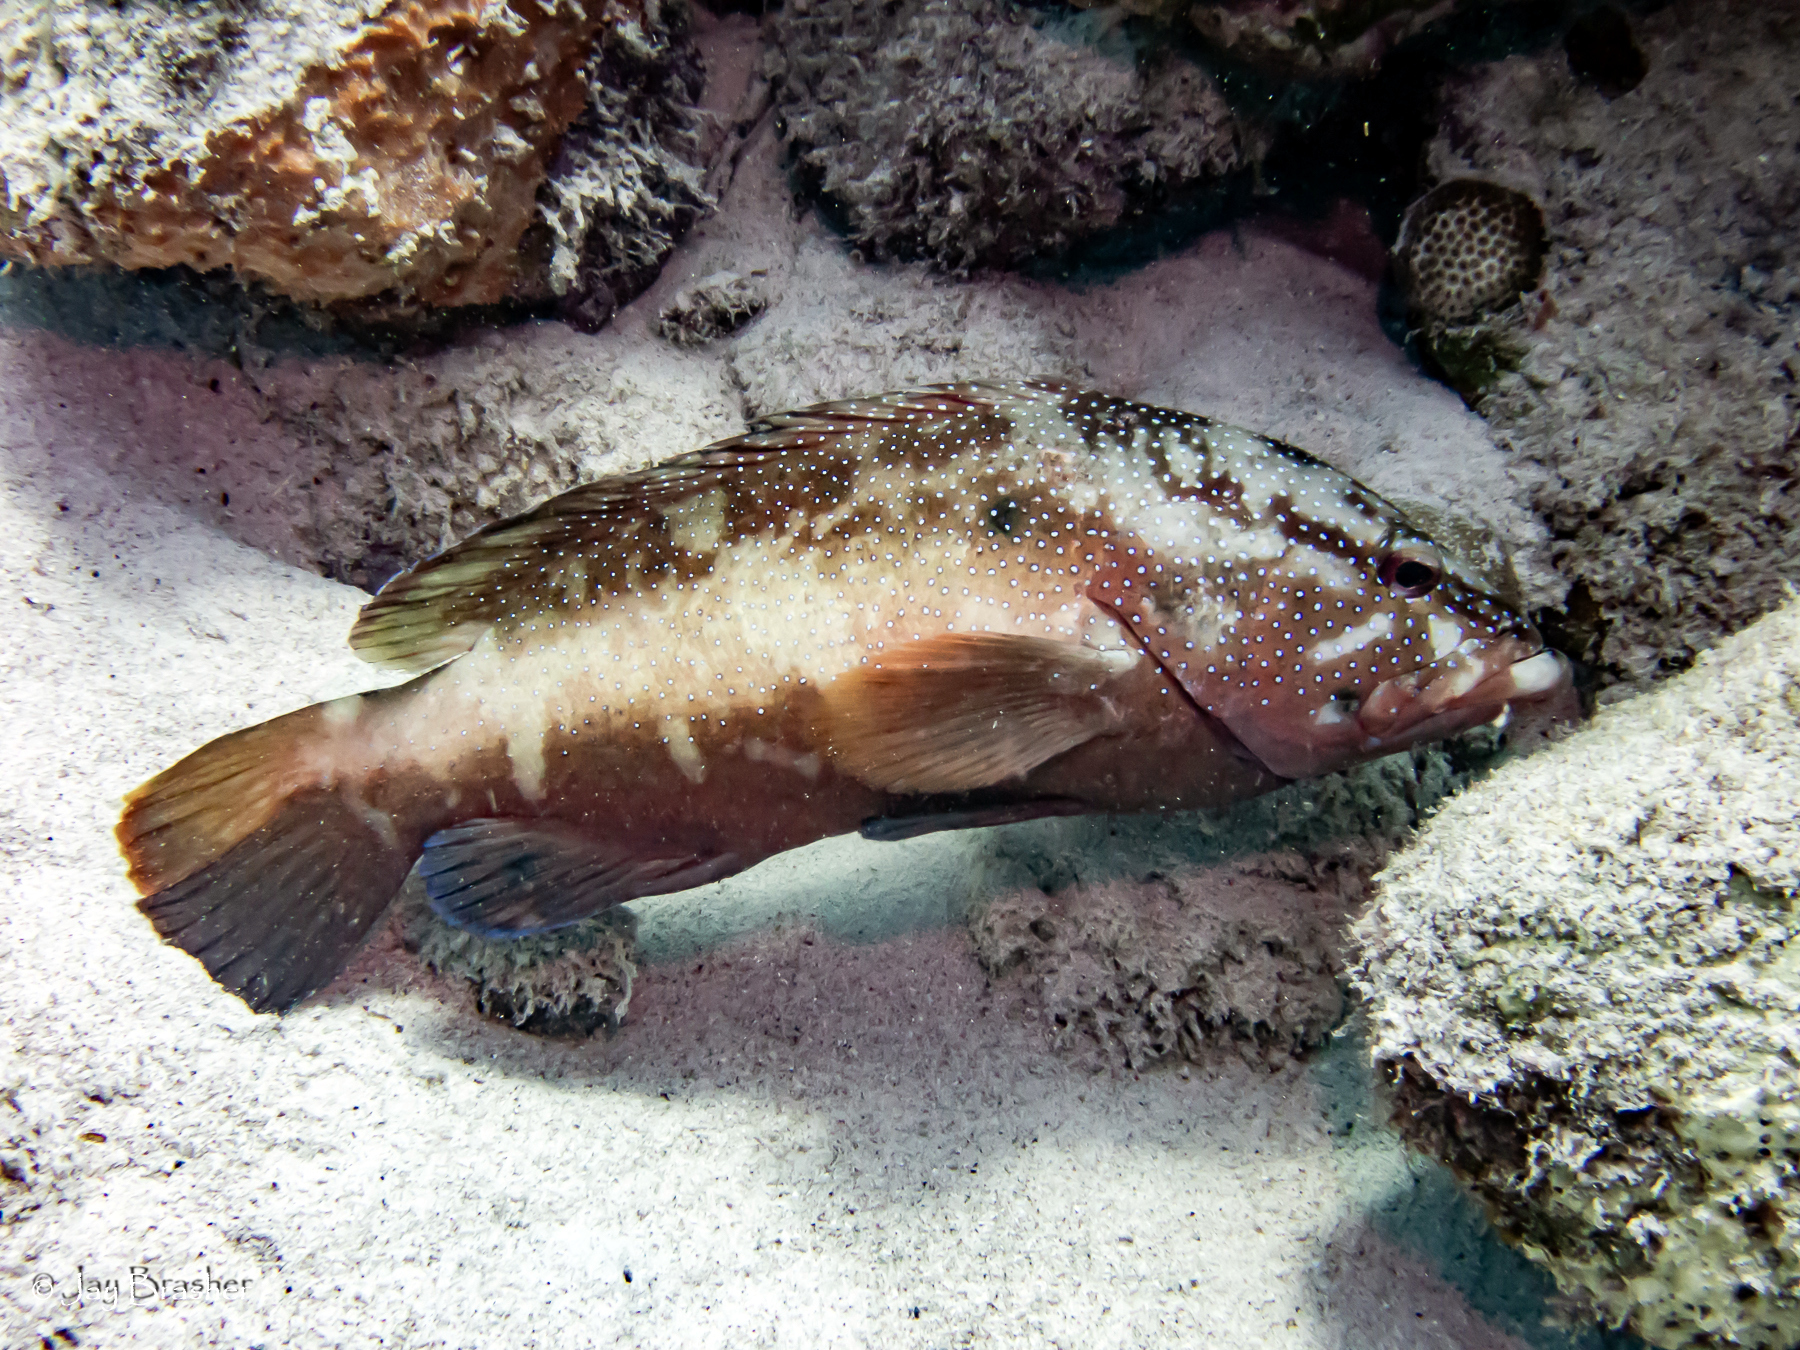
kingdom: Animalia
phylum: Chordata
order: Perciformes
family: Serranidae
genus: Cephalopholis
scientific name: Cephalopholis fulva
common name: Butterfish
